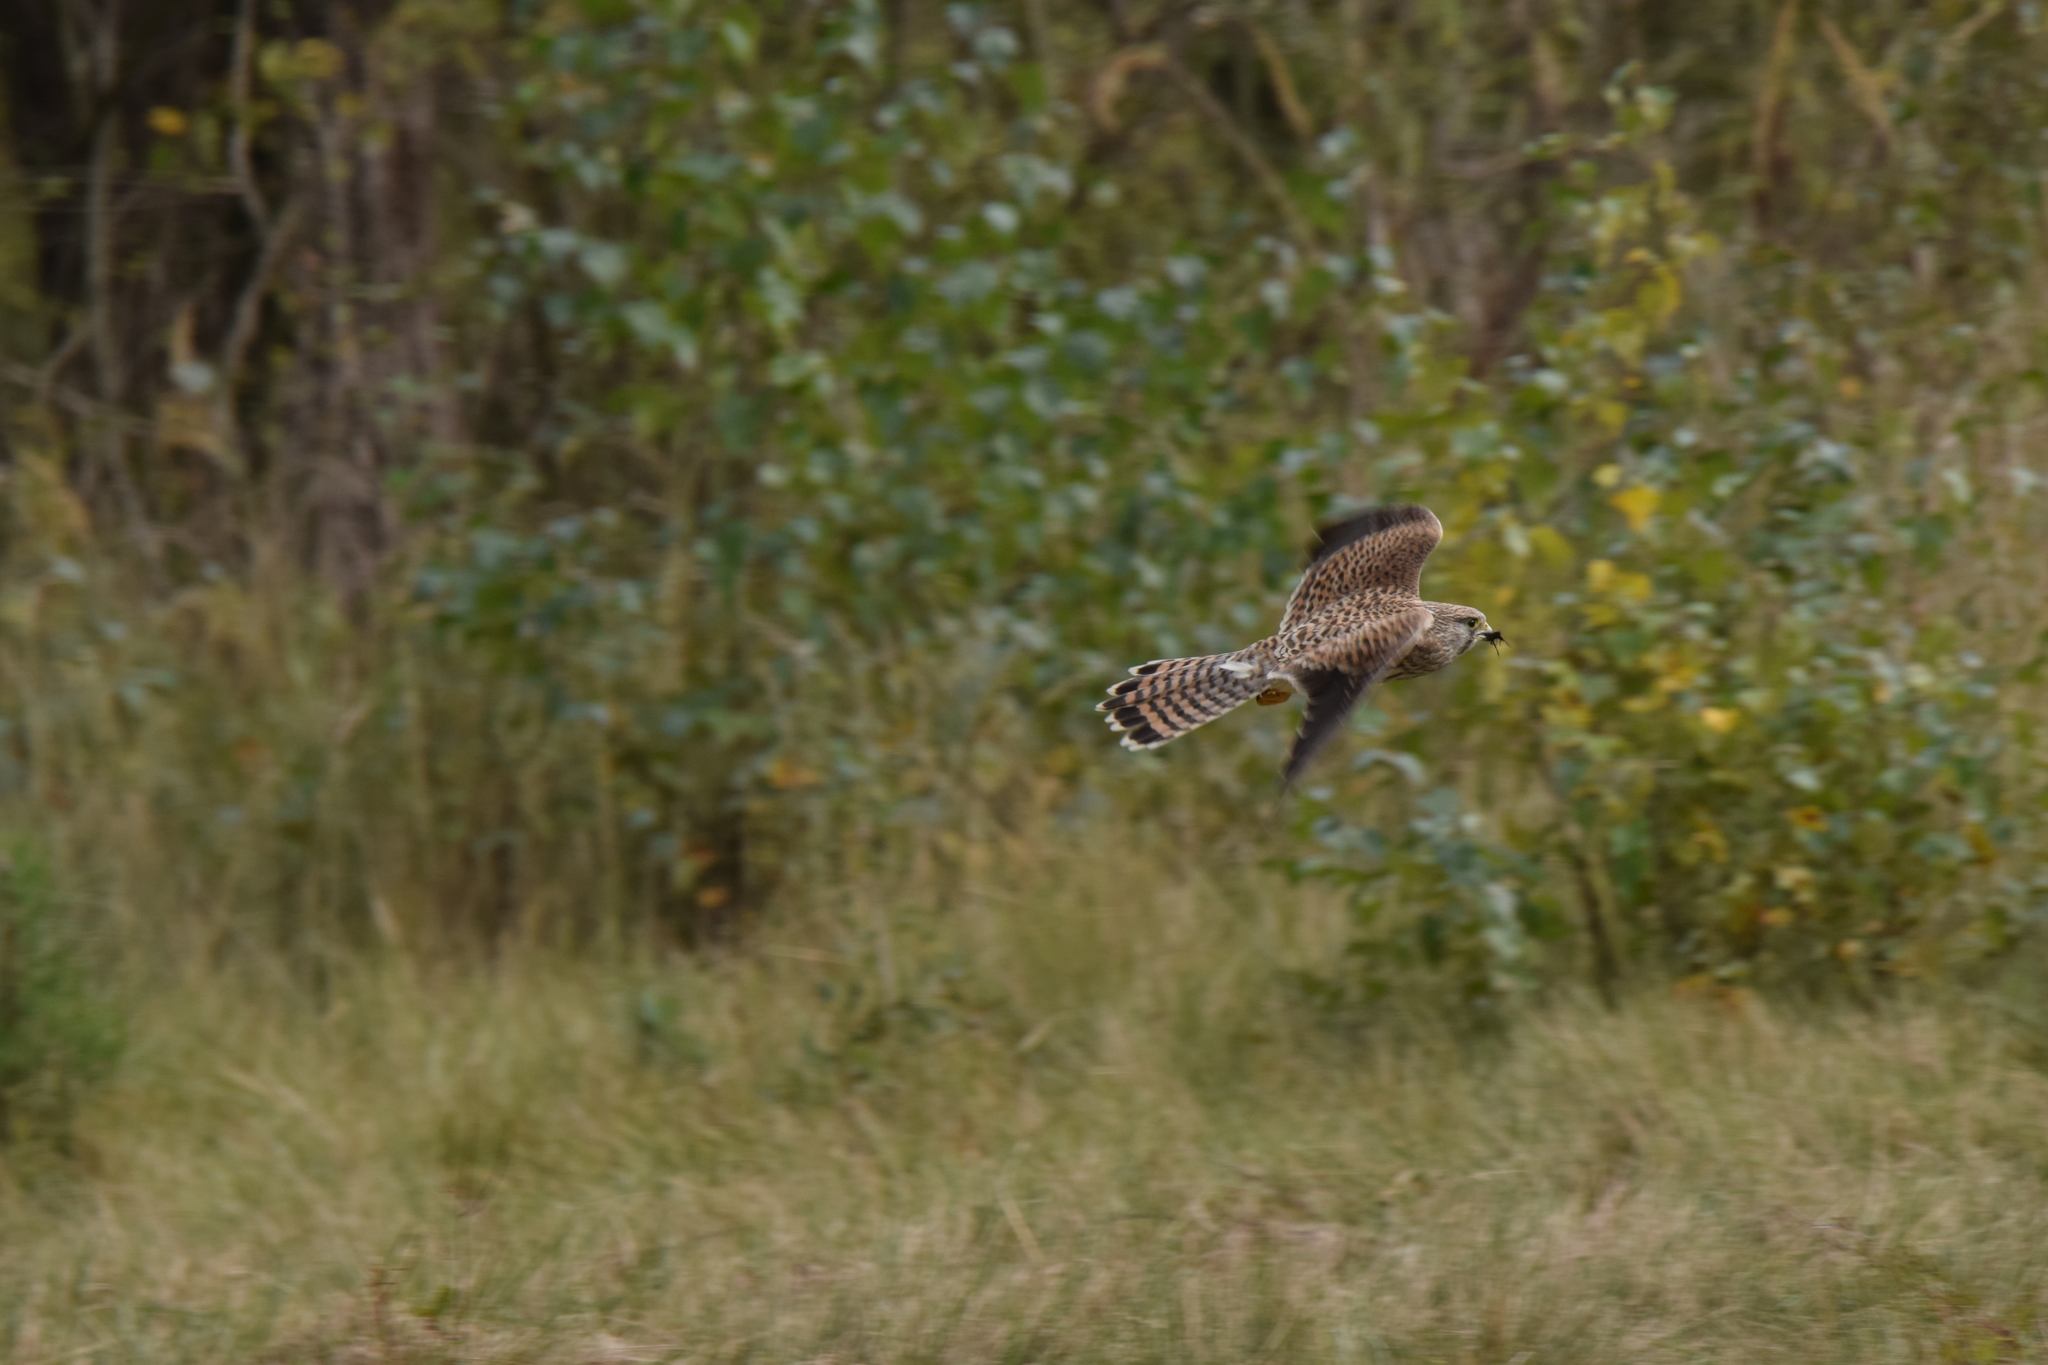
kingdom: Animalia
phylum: Chordata
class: Aves
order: Falconiformes
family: Falconidae
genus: Falco
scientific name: Falco tinnunculus
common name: Common kestrel
